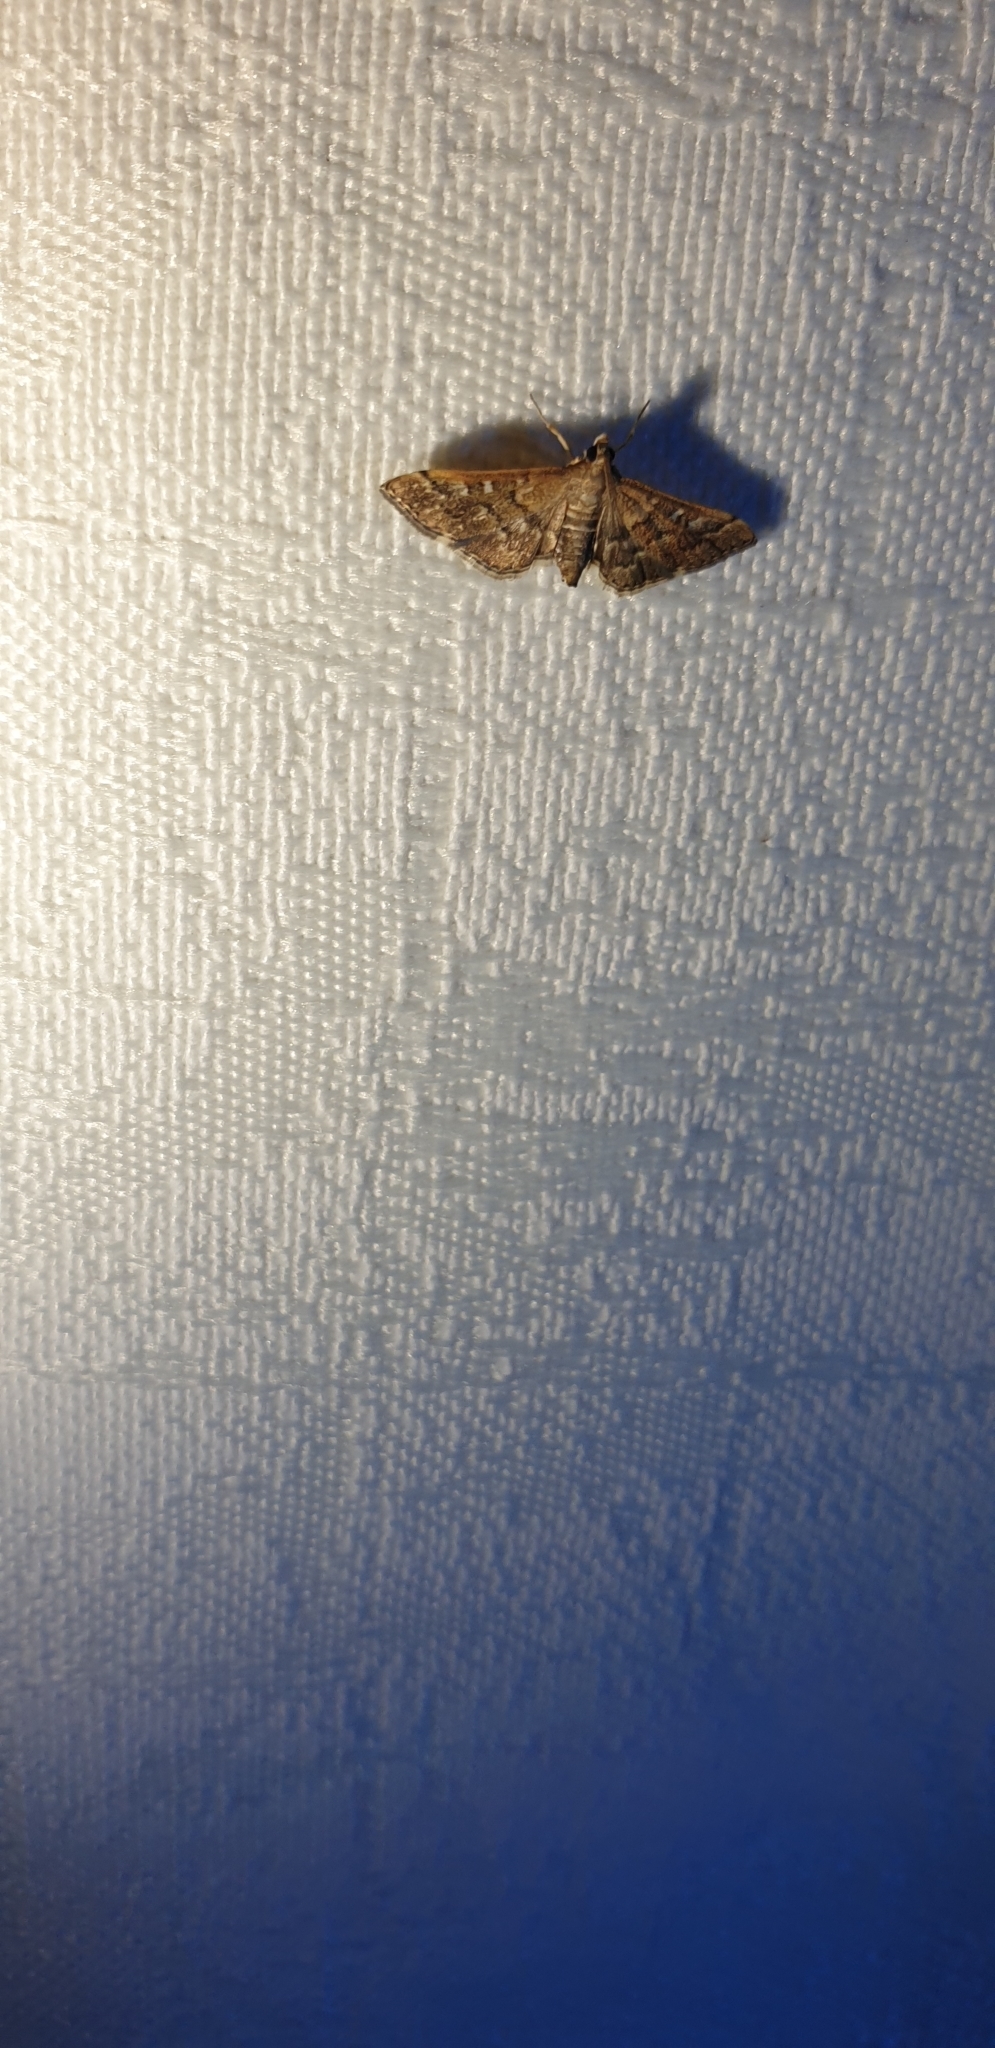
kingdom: Animalia
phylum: Arthropoda
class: Insecta
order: Lepidoptera
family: Crambidae
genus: Nacoleia
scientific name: Nacoleia rhoeoalis
